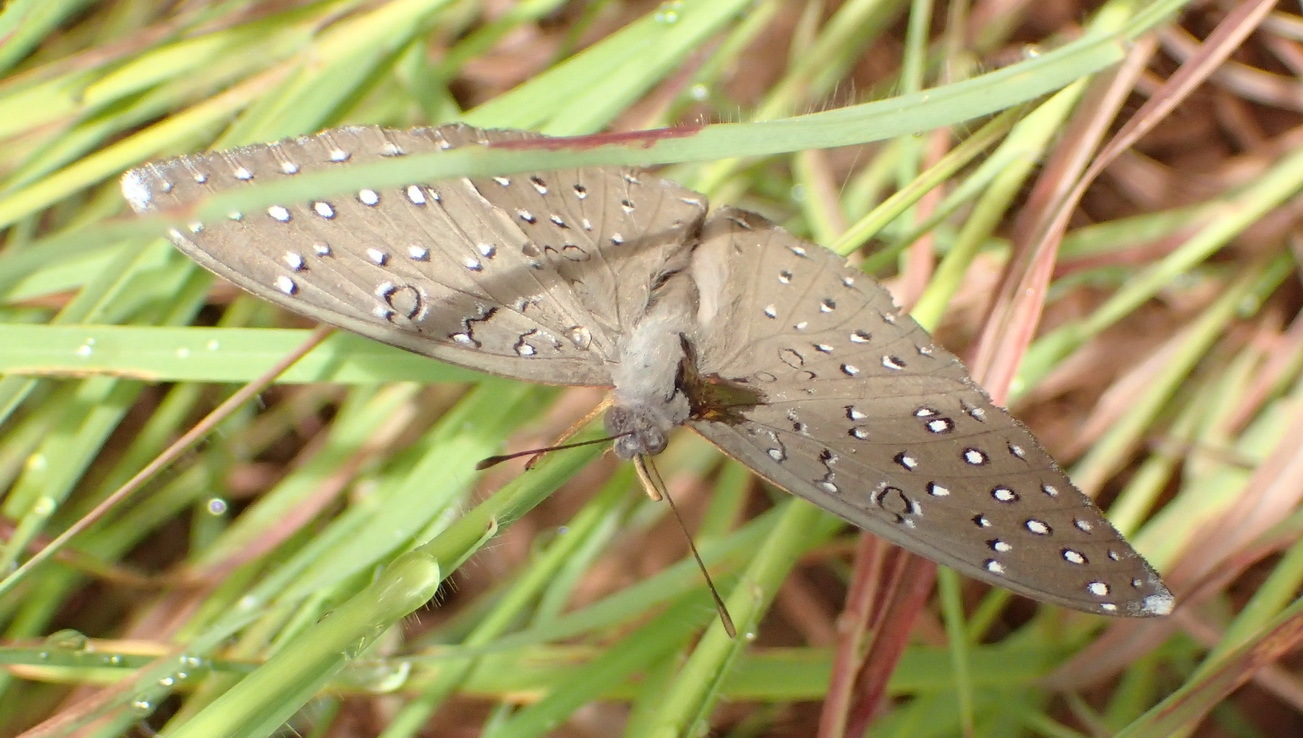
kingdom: Animalia
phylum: Arthropoda
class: Insecta
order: Lepidoptera
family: Nymphalidae
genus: Hamanumida
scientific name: Hamanumida daedalus
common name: Guinea-fowl butterfly
